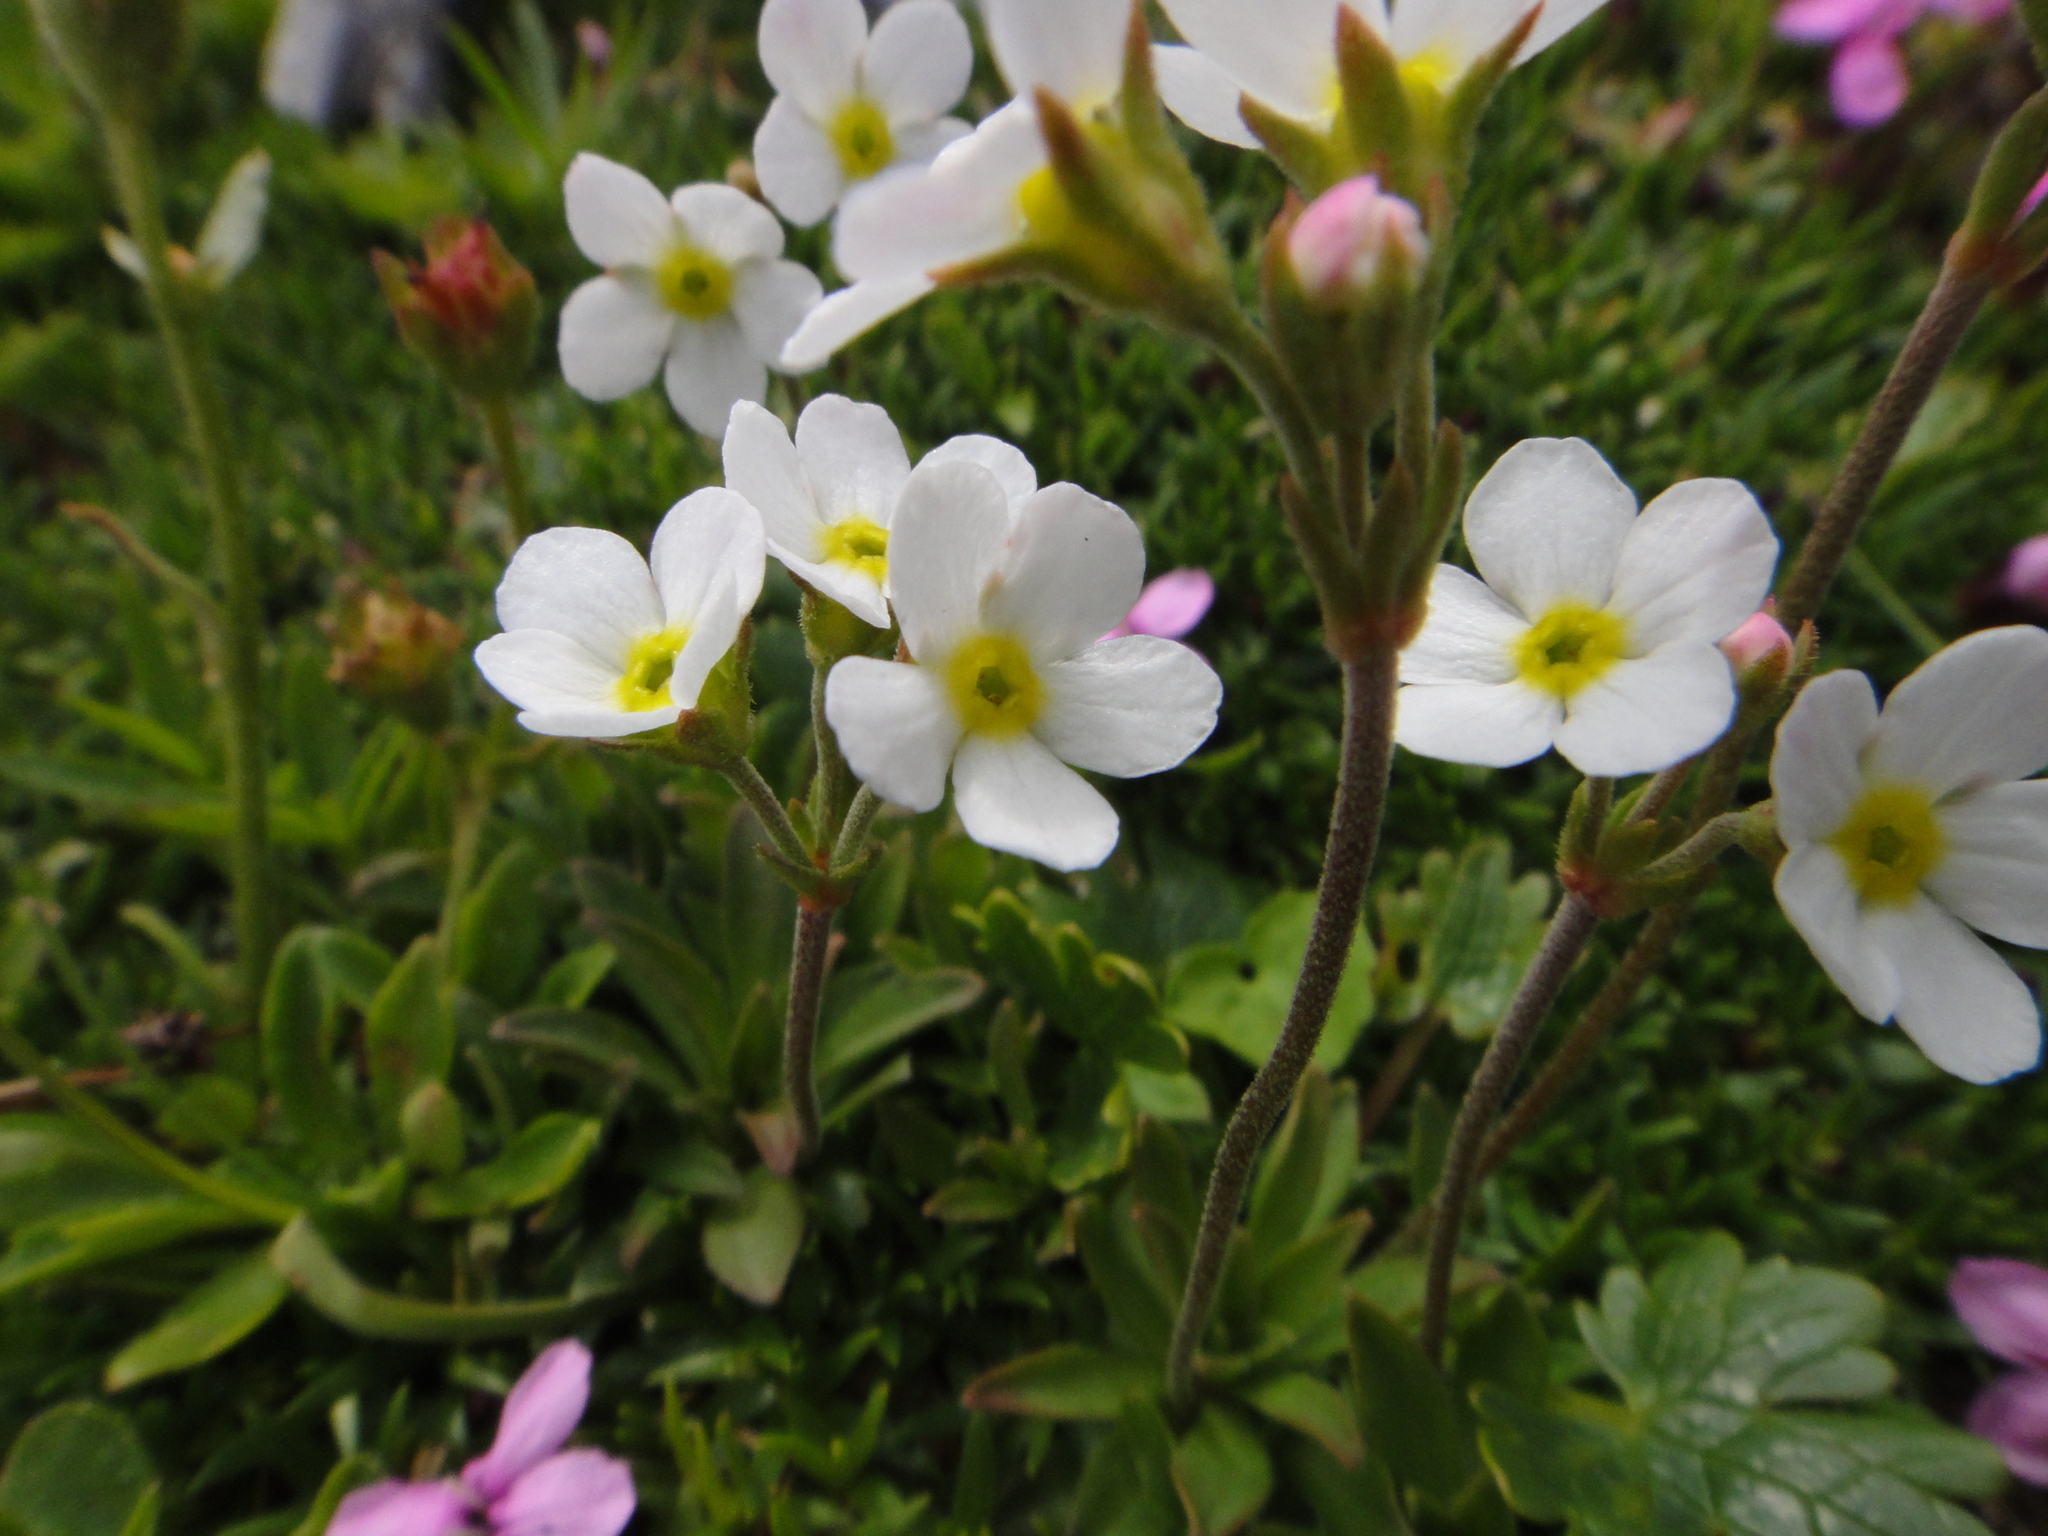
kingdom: Plantae
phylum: Tracheophyta
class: Magnoliopsida
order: Ericales
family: Primulaceae
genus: Androsace
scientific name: Androsace obtusifolia
